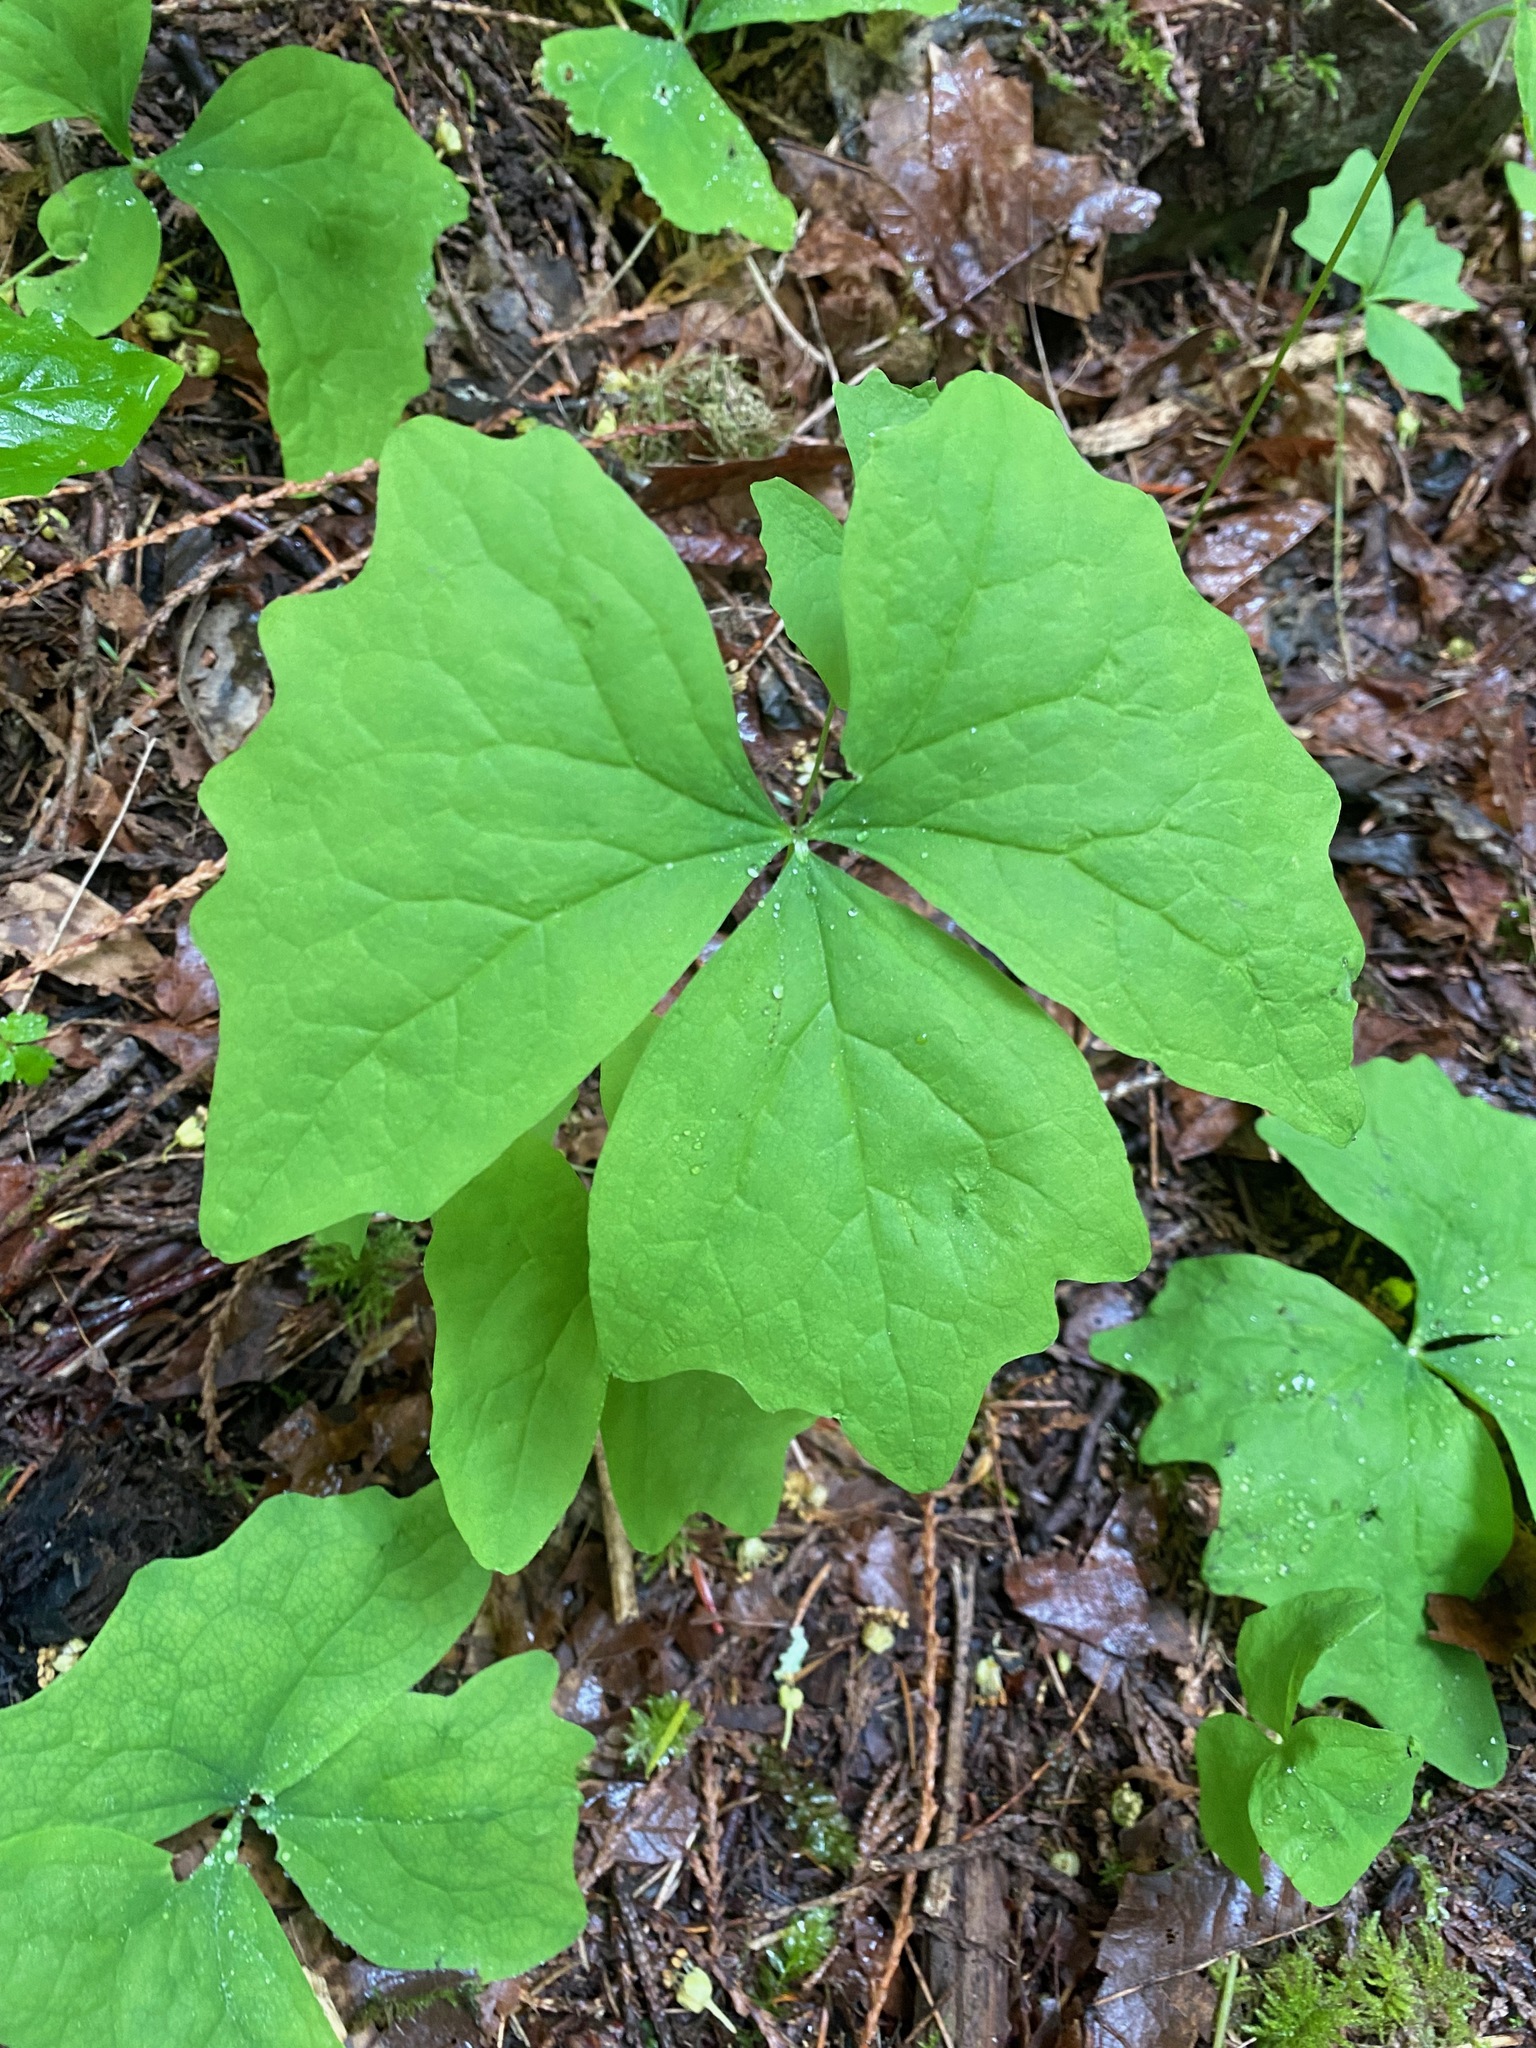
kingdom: Plantae
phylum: Tracheophyta
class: Magnoliopsida
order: Ranunculales
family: Berberidaceae
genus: Achlys
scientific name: Achlys triphylla
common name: Vanilla-leaf
